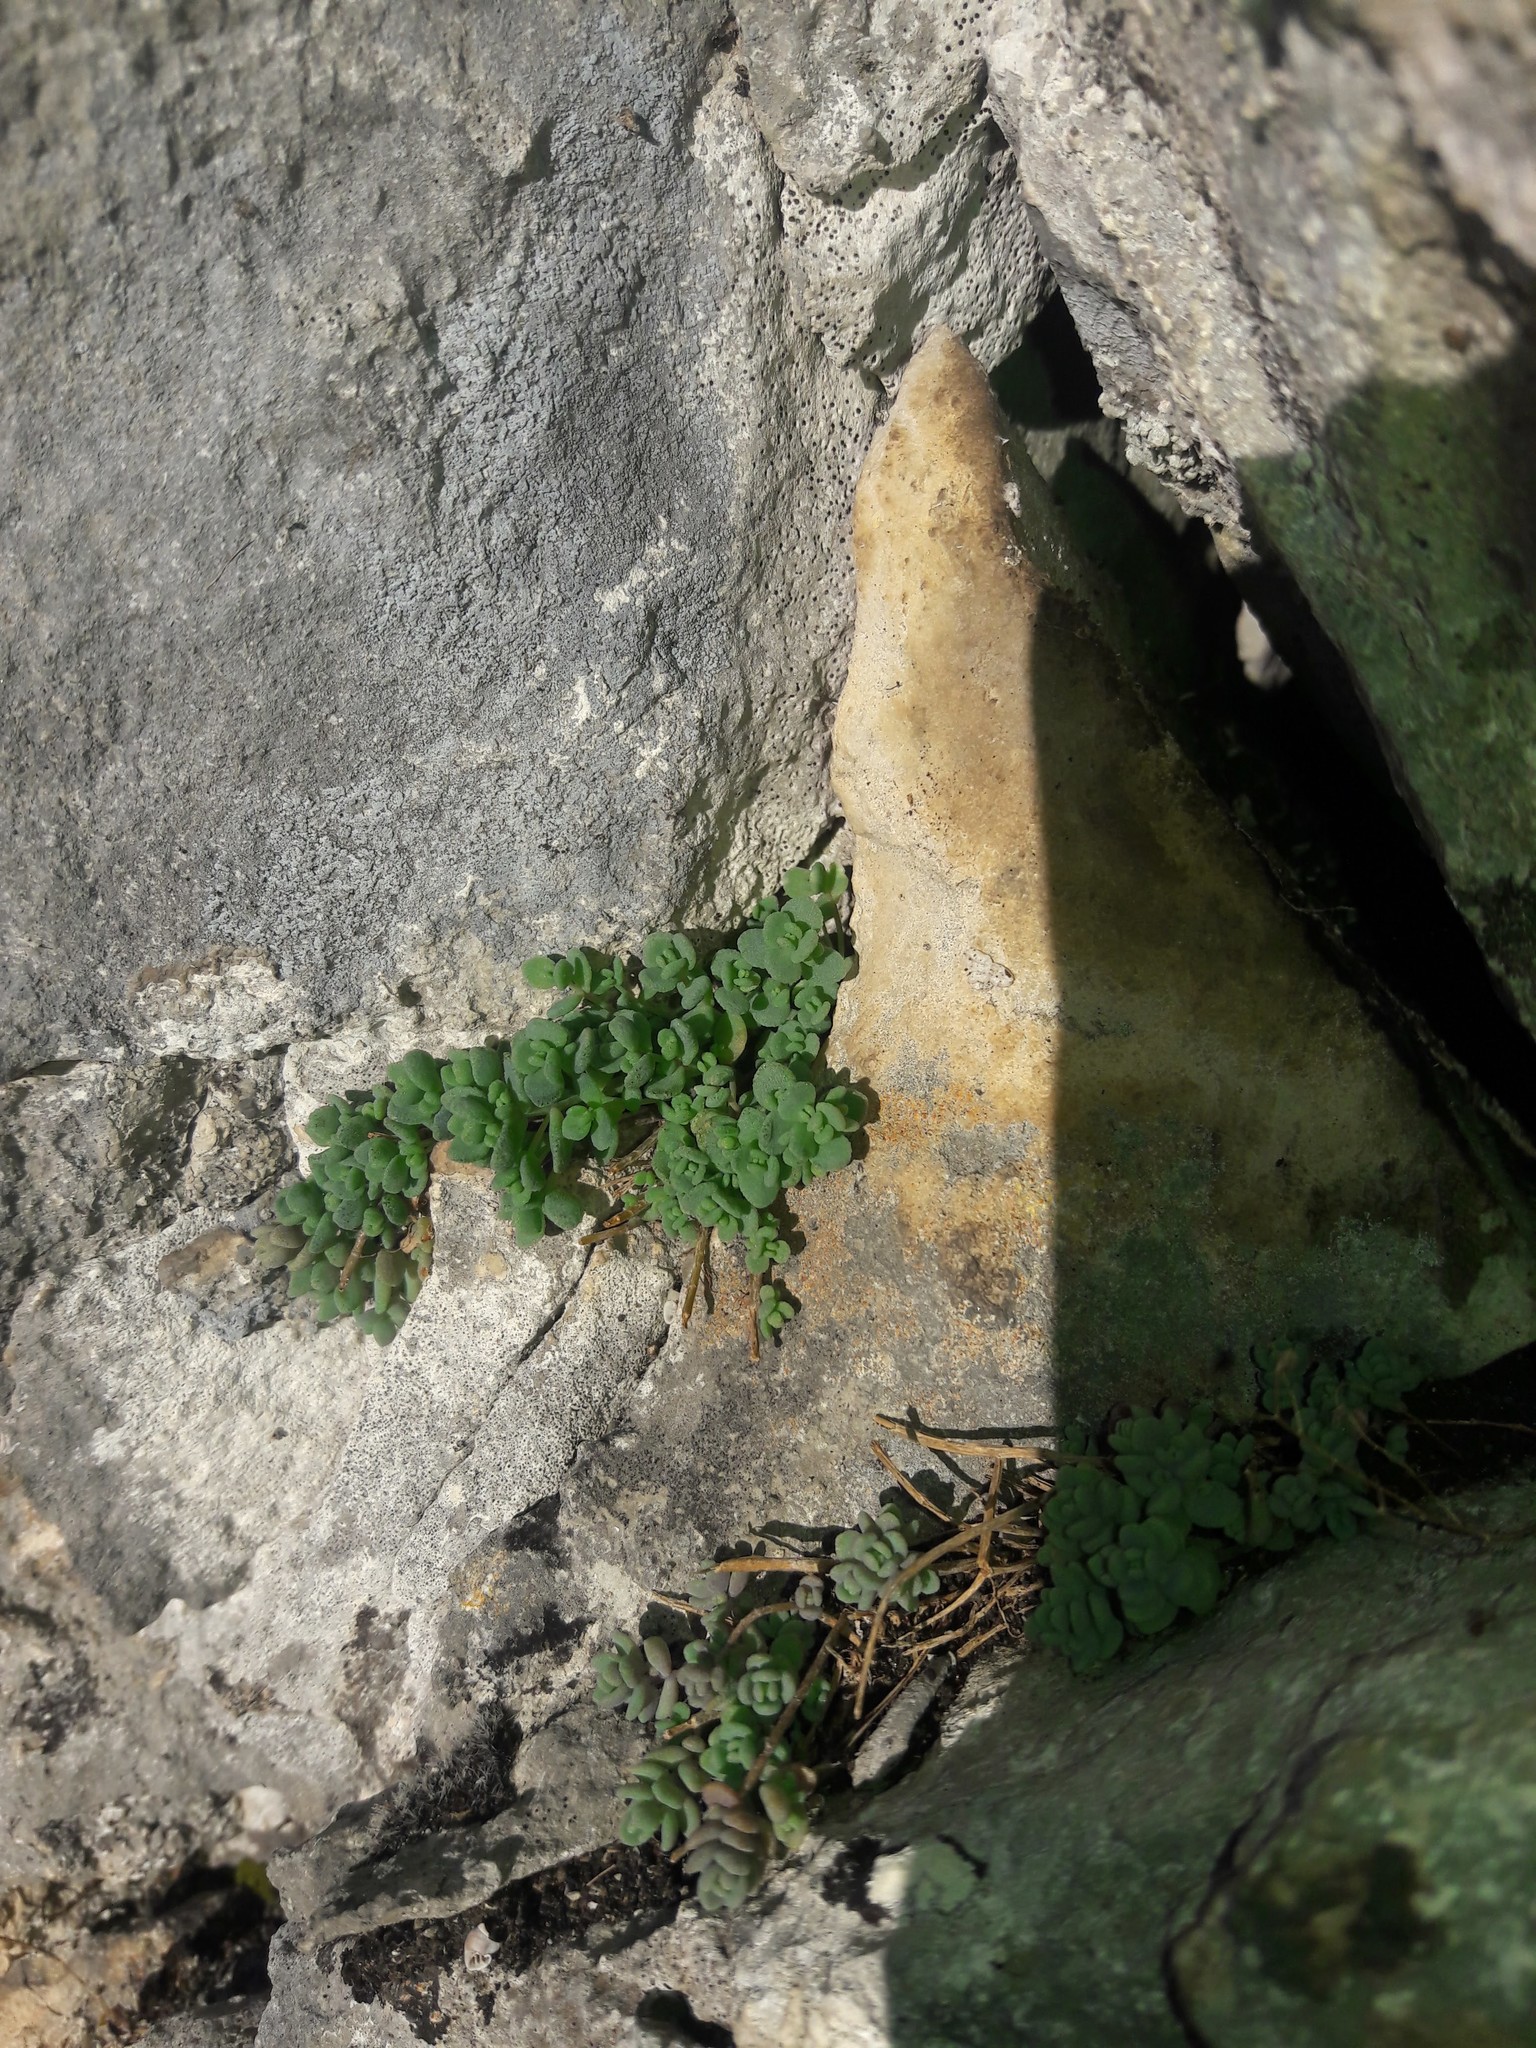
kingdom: Plantae
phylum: Tracheophyta
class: Magnoliopsida
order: Saxifragales
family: Crassulaceae
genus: Sedum
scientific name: Sedum dasyphyllum
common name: Thick-leaf stonecrop
